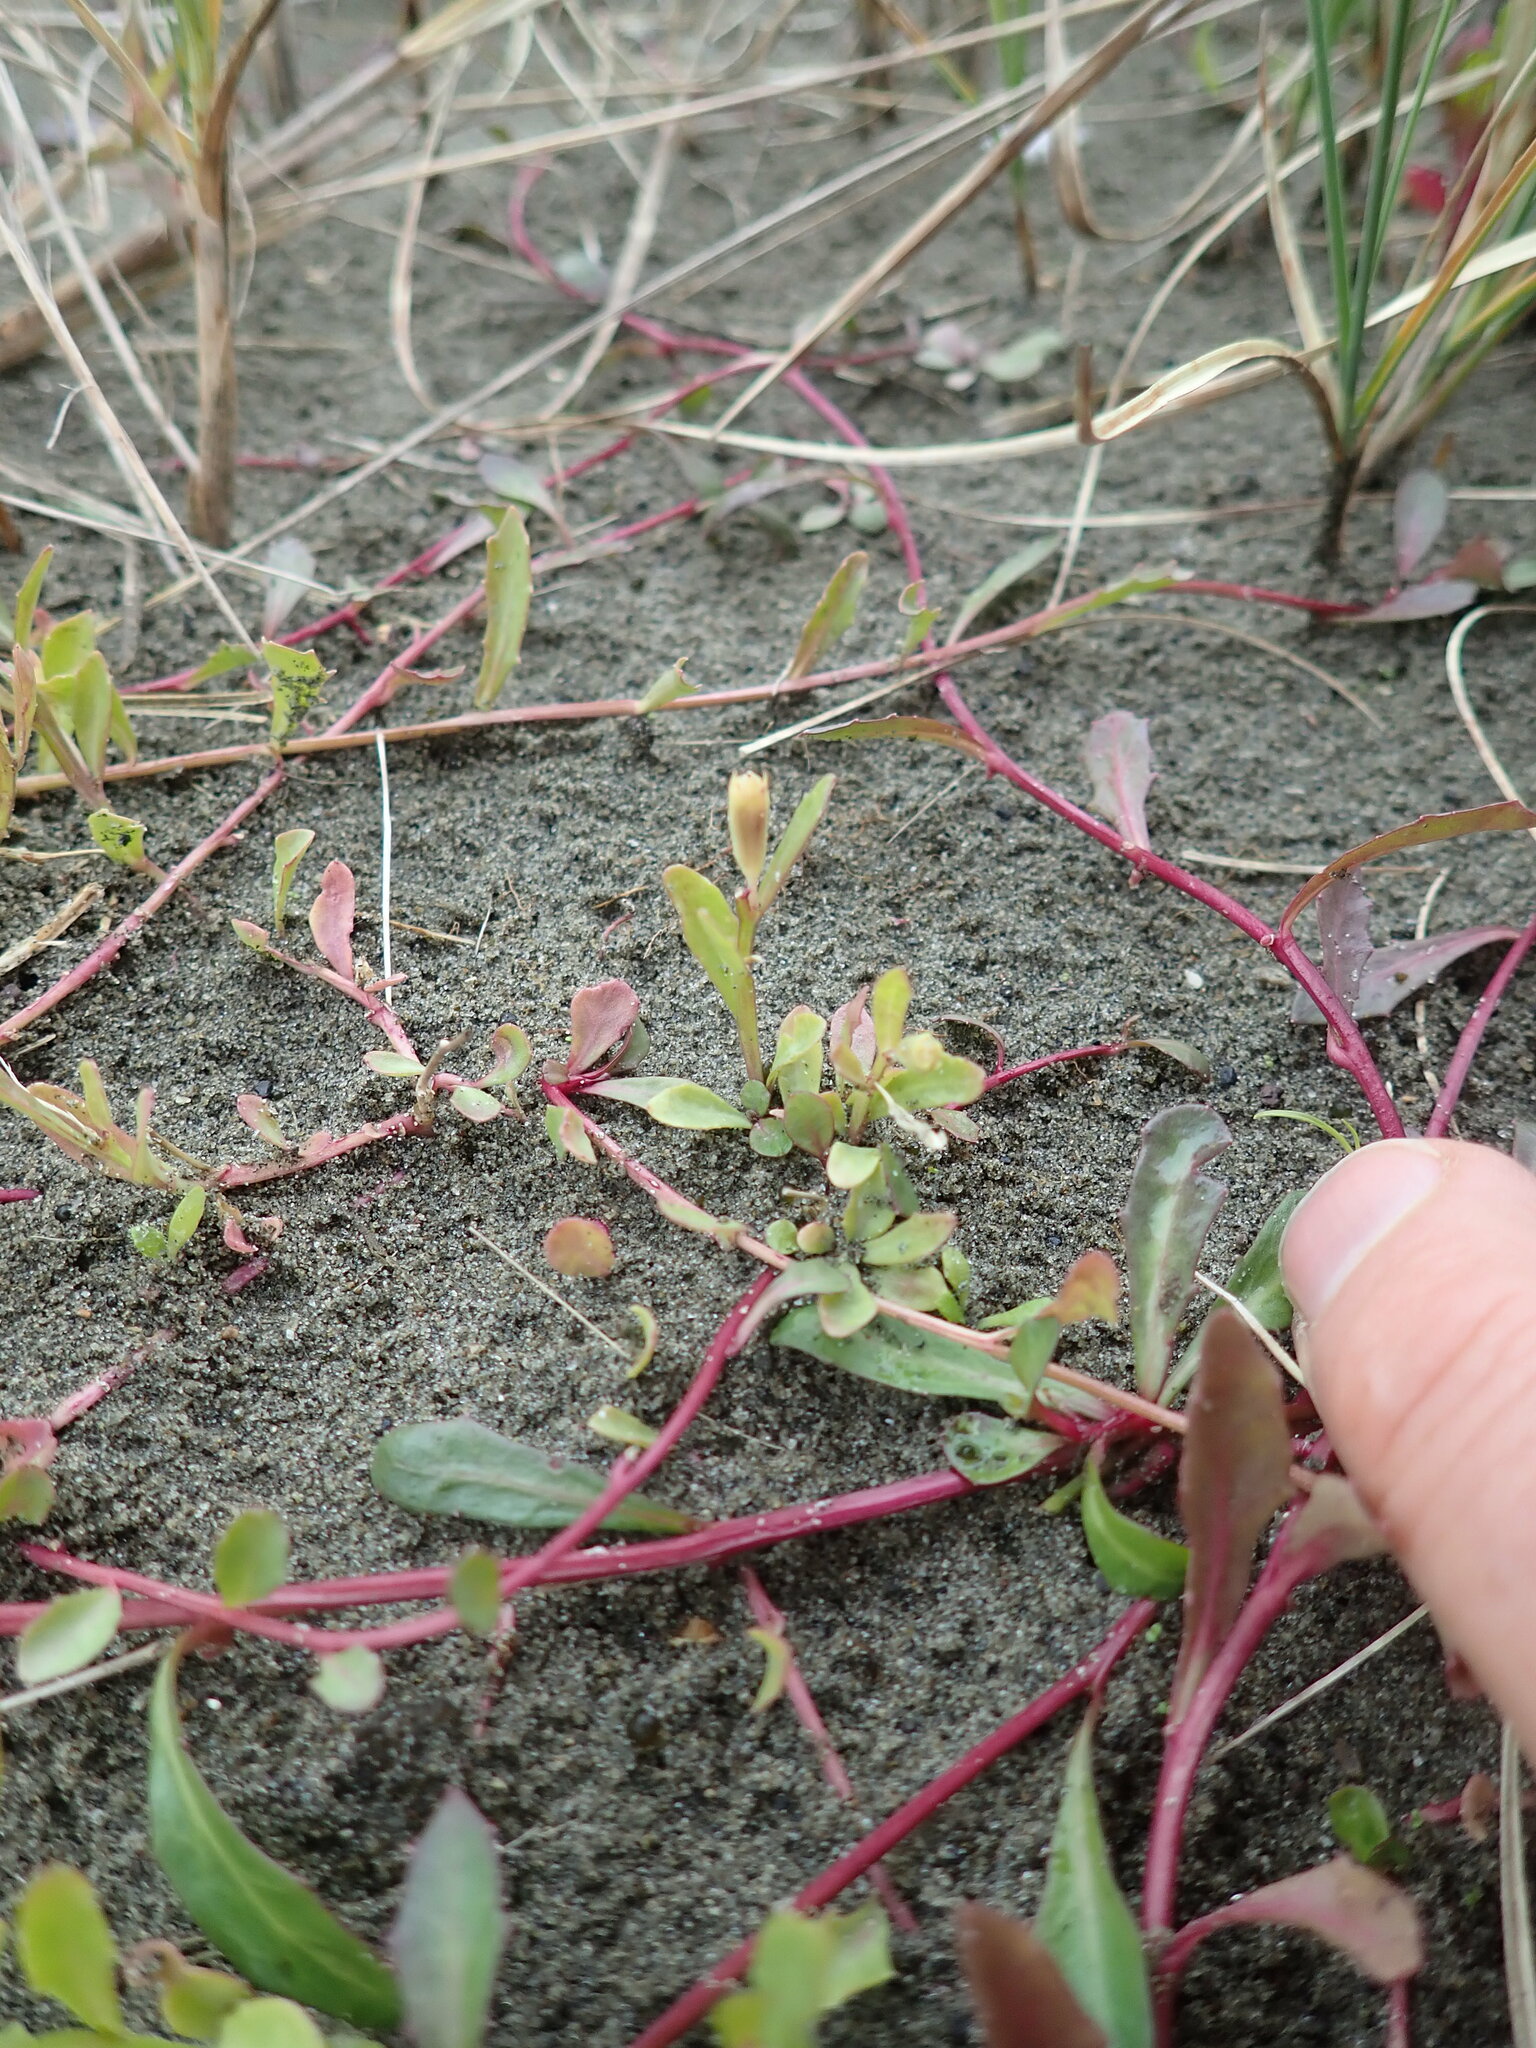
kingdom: Plantae
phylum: Tracheophyta
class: Magnoliopsida
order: Asterales
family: Campanulaceae
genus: Lobelia
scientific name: Lobelia anceps
